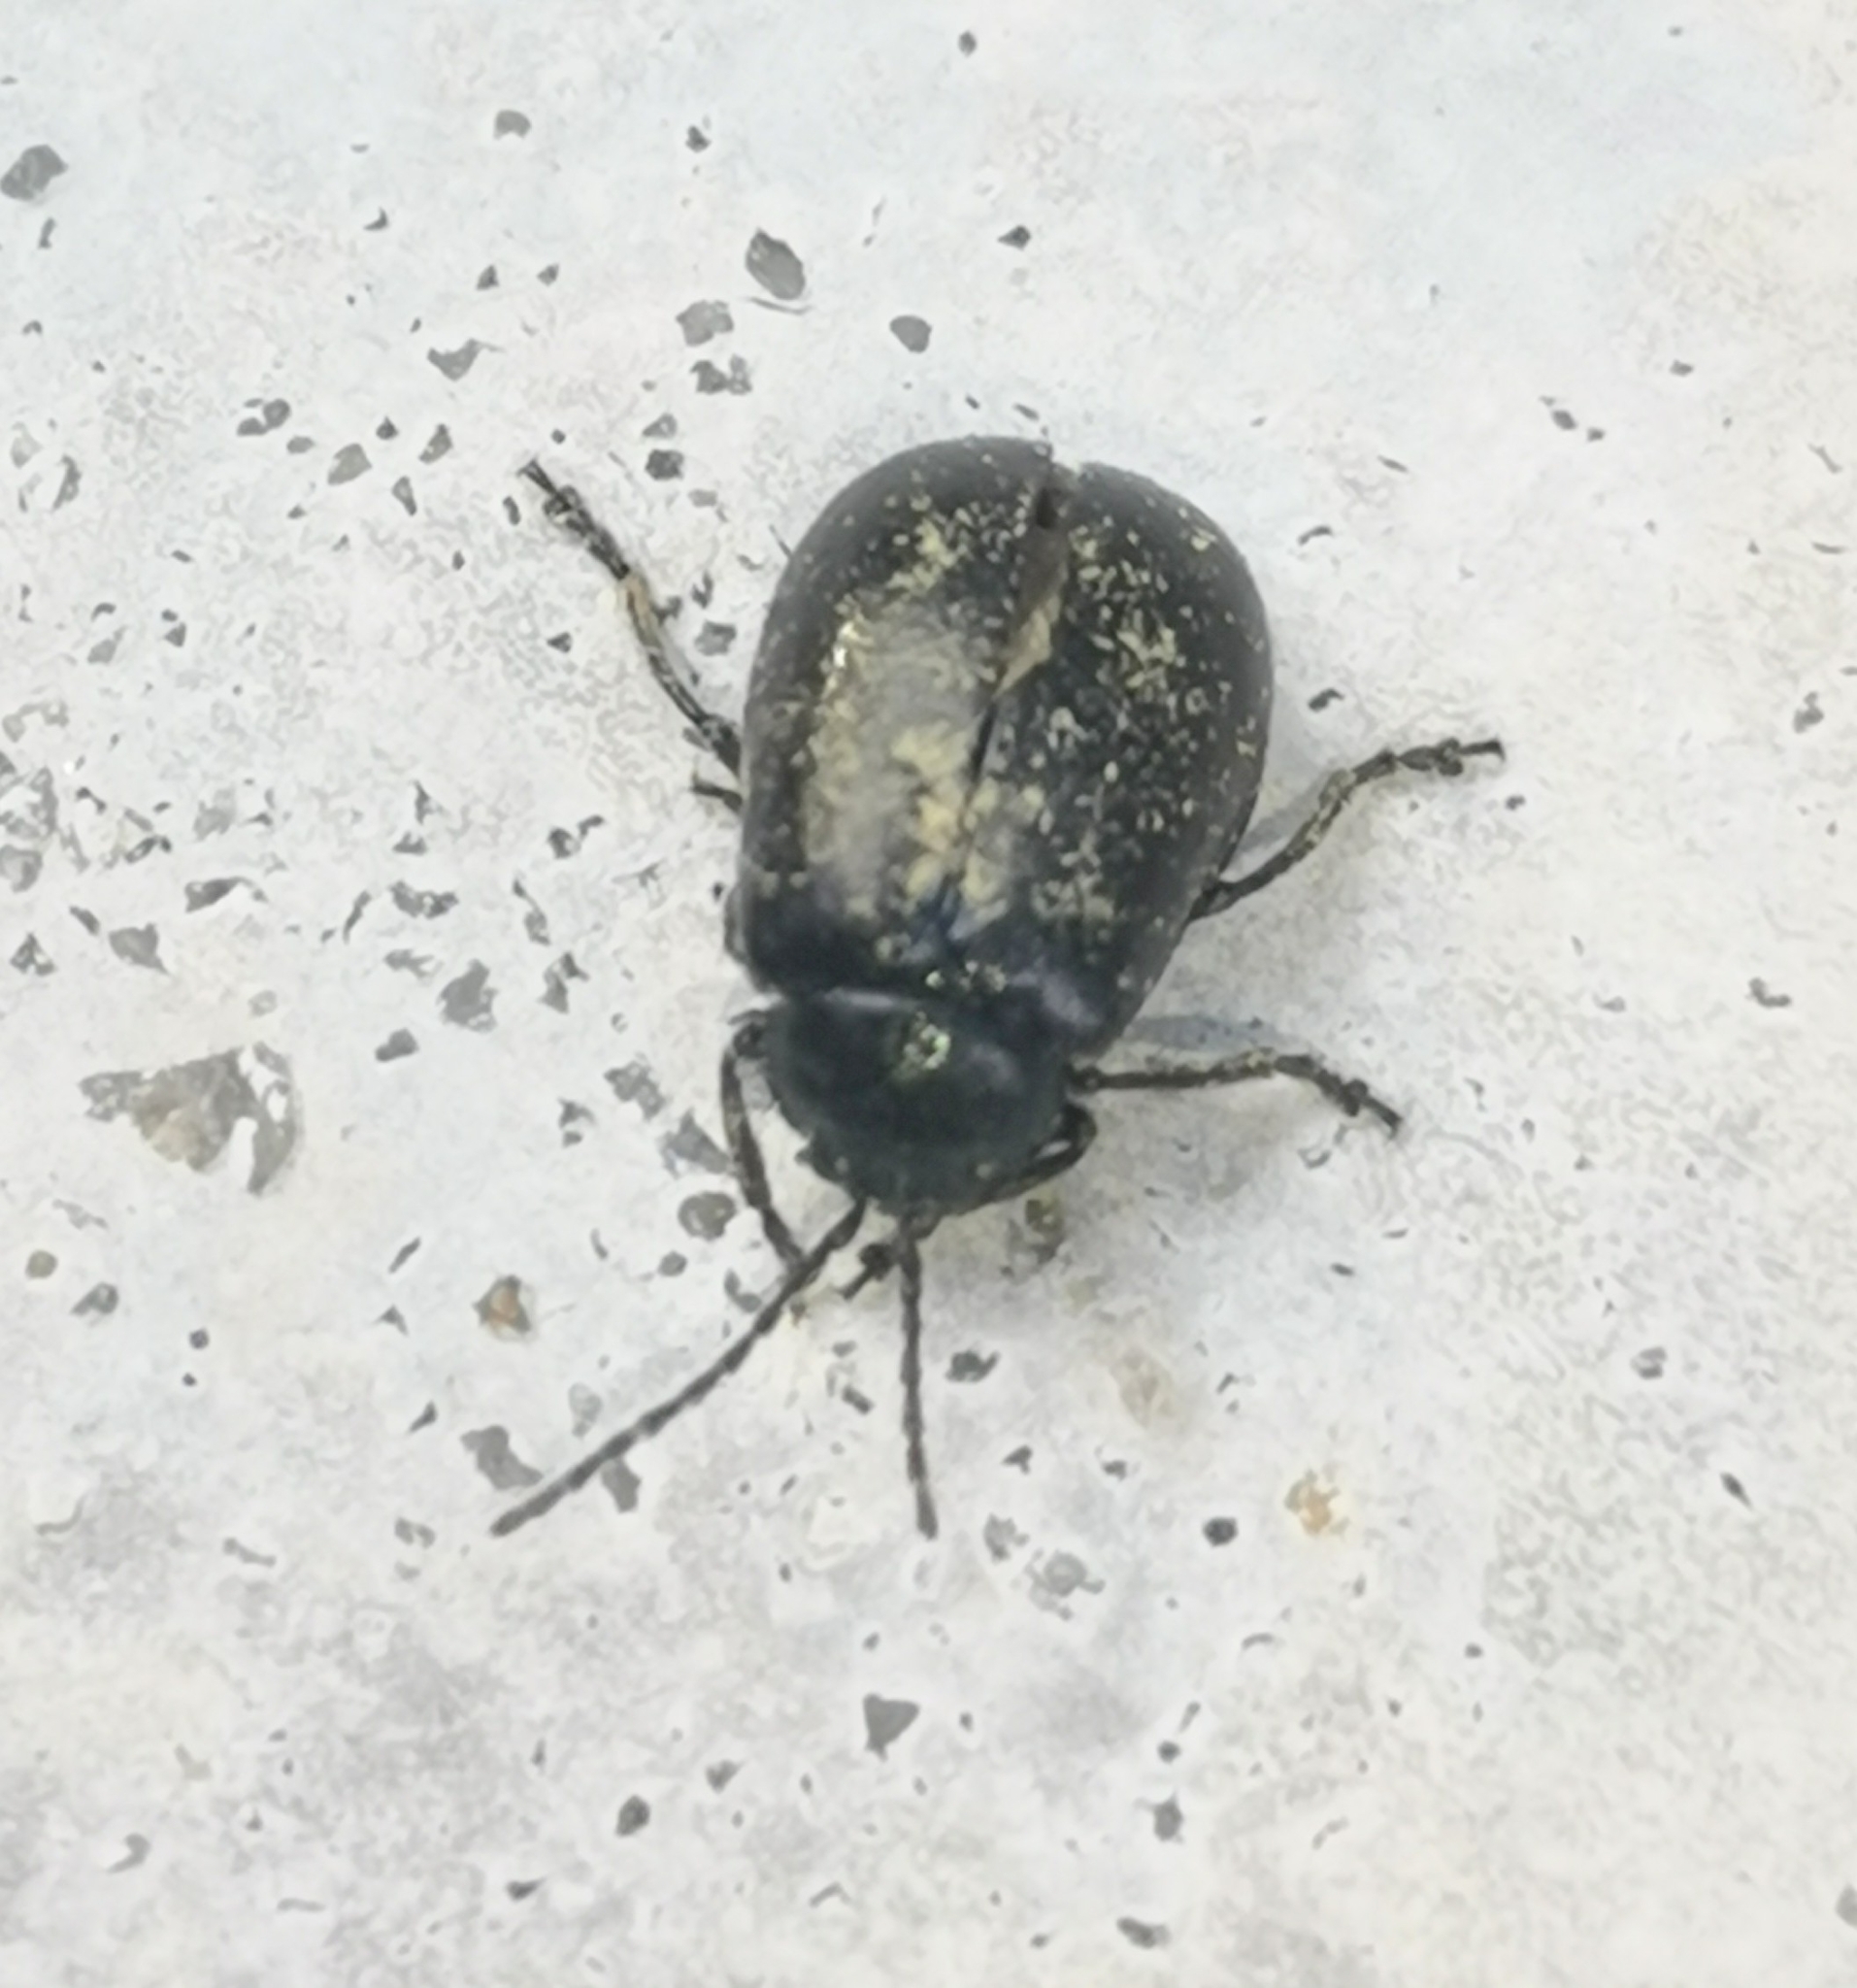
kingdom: Animalia
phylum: Arthropoda
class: Insecta
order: Coleoptera
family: Chrysomelidae
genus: Agelastica
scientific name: Agelastica alni
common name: Alder leaf beetle
